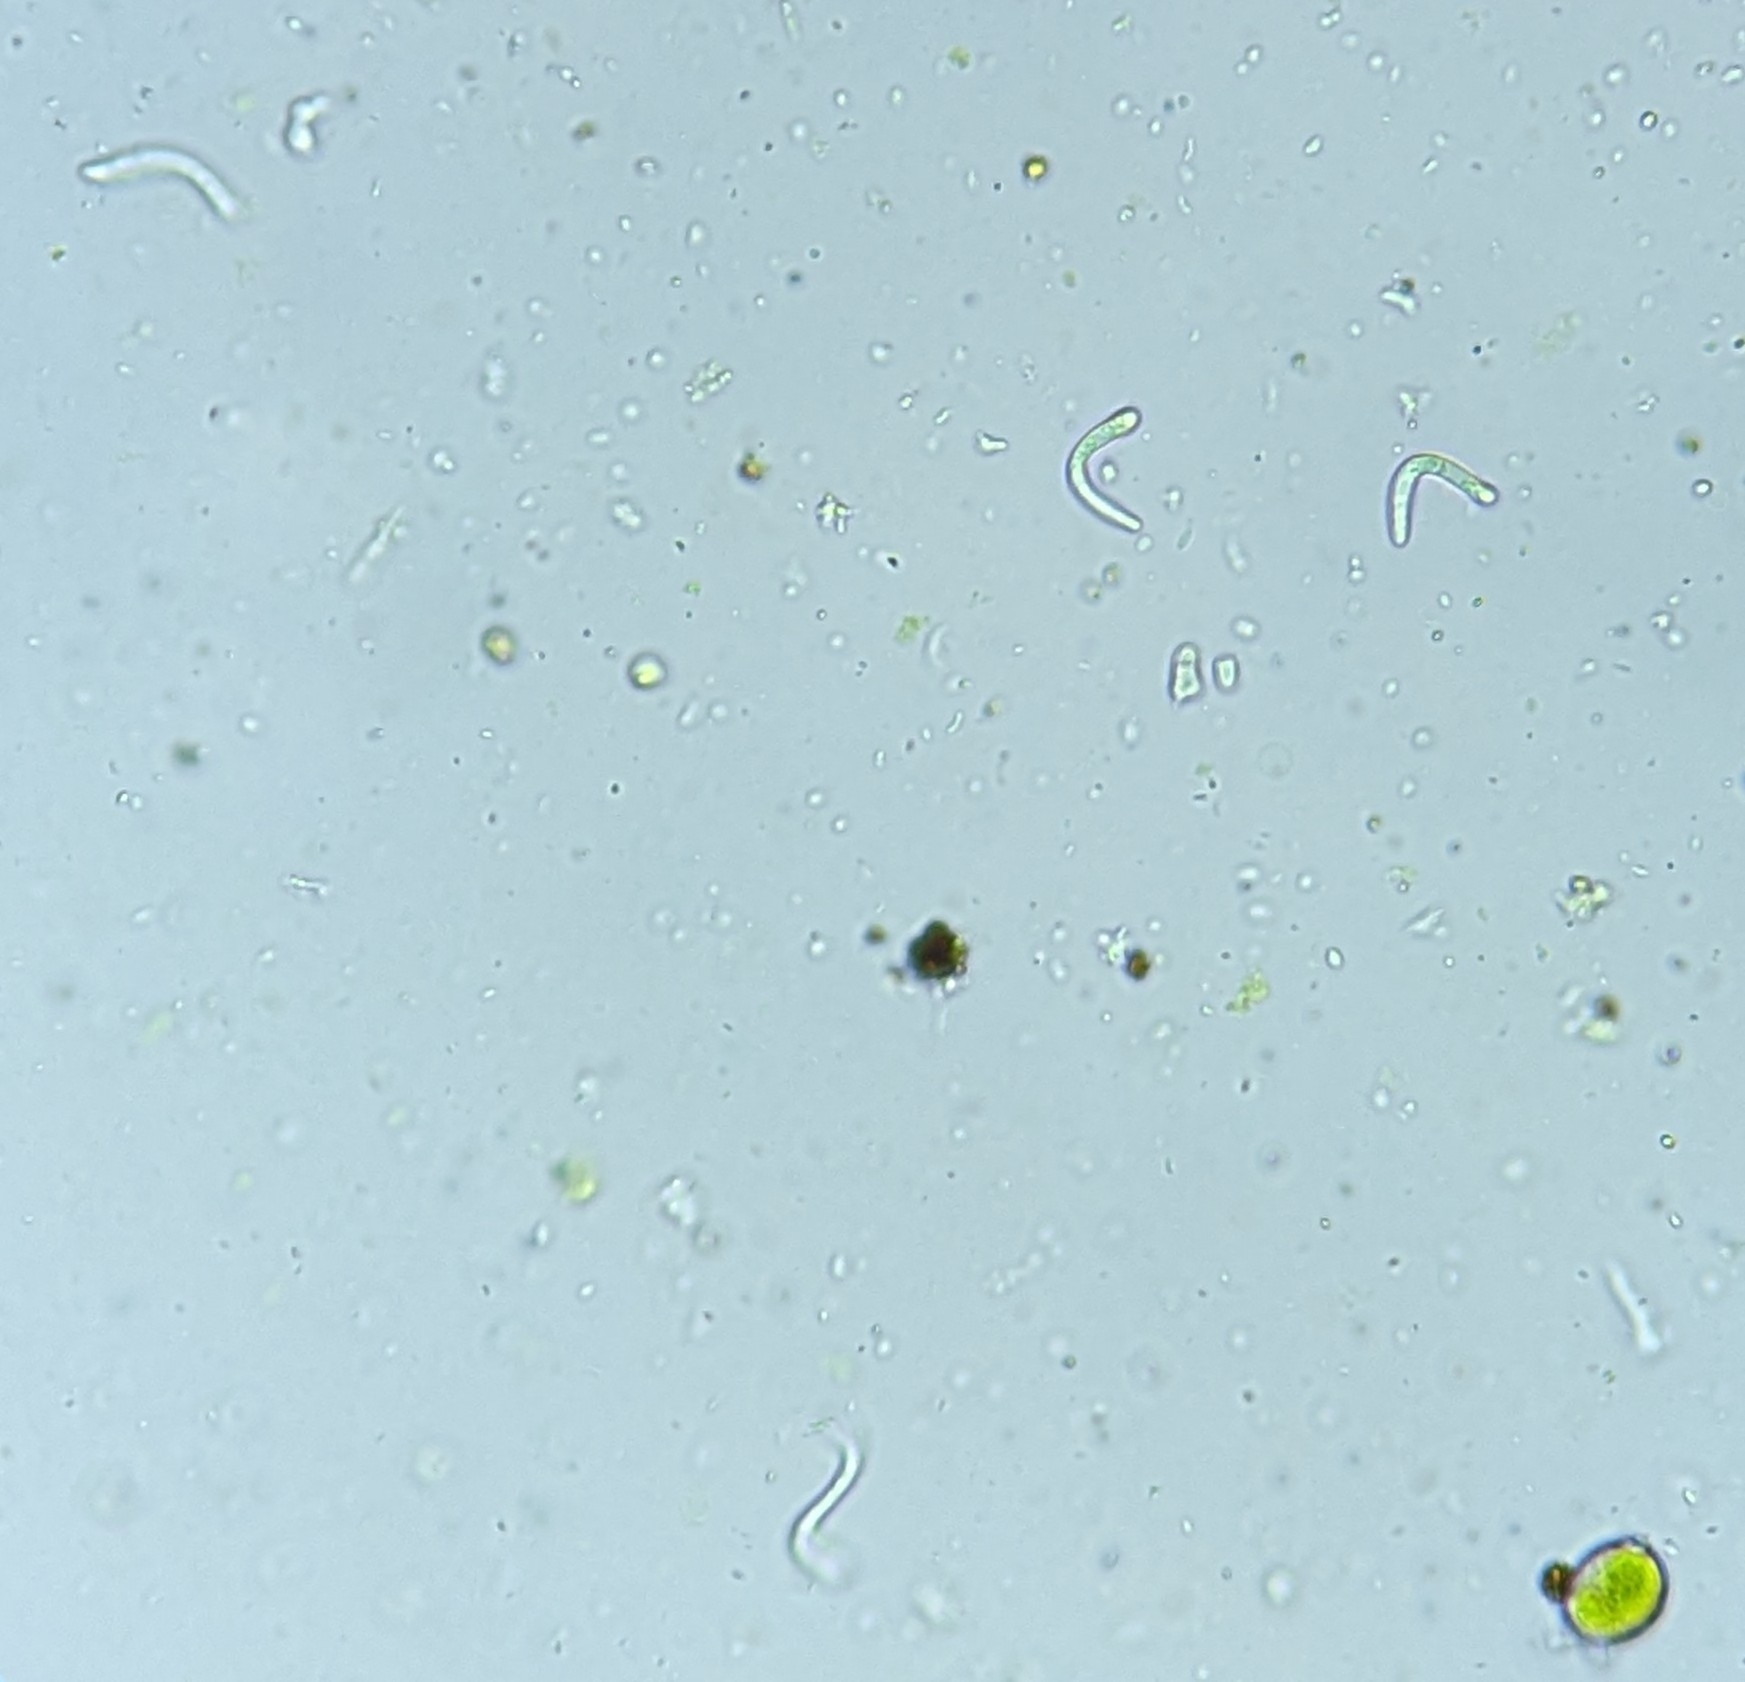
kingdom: Fungi
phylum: Ascomycota
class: Lecanoromycetes
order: Lecanorales
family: Scoliciosporaceae
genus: Scoliciosporum
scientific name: Scoliciosporum umbrinum
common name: Umber dot lichen
